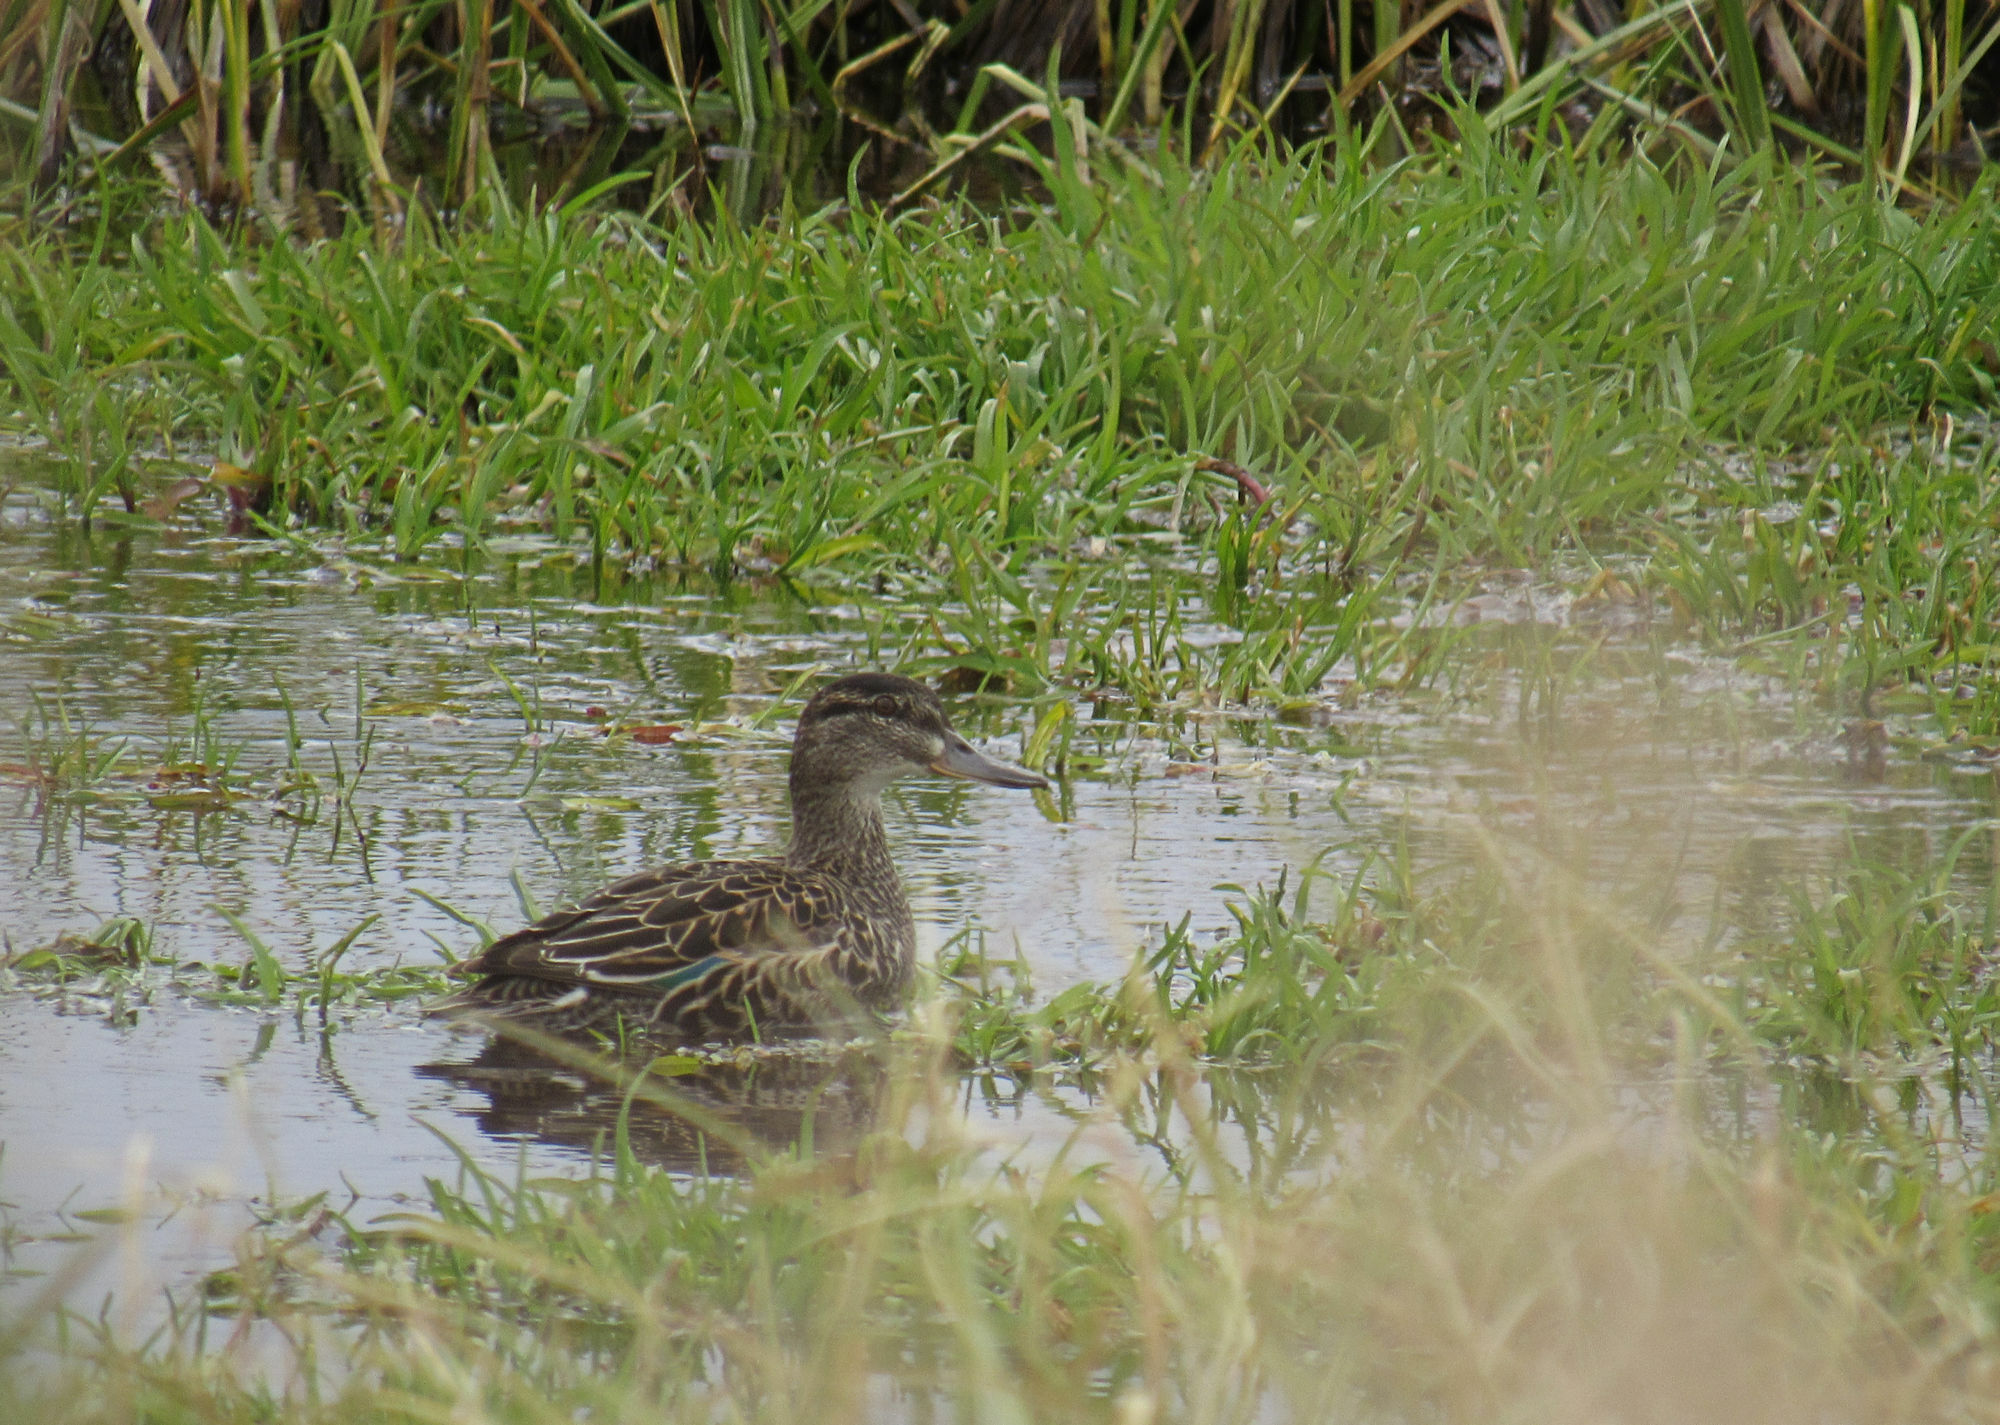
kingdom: Animalia
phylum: Chordata
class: Aves
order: Anseriformes
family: Anatidae
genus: Anas
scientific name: Anas crecca
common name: Eurasian teal
